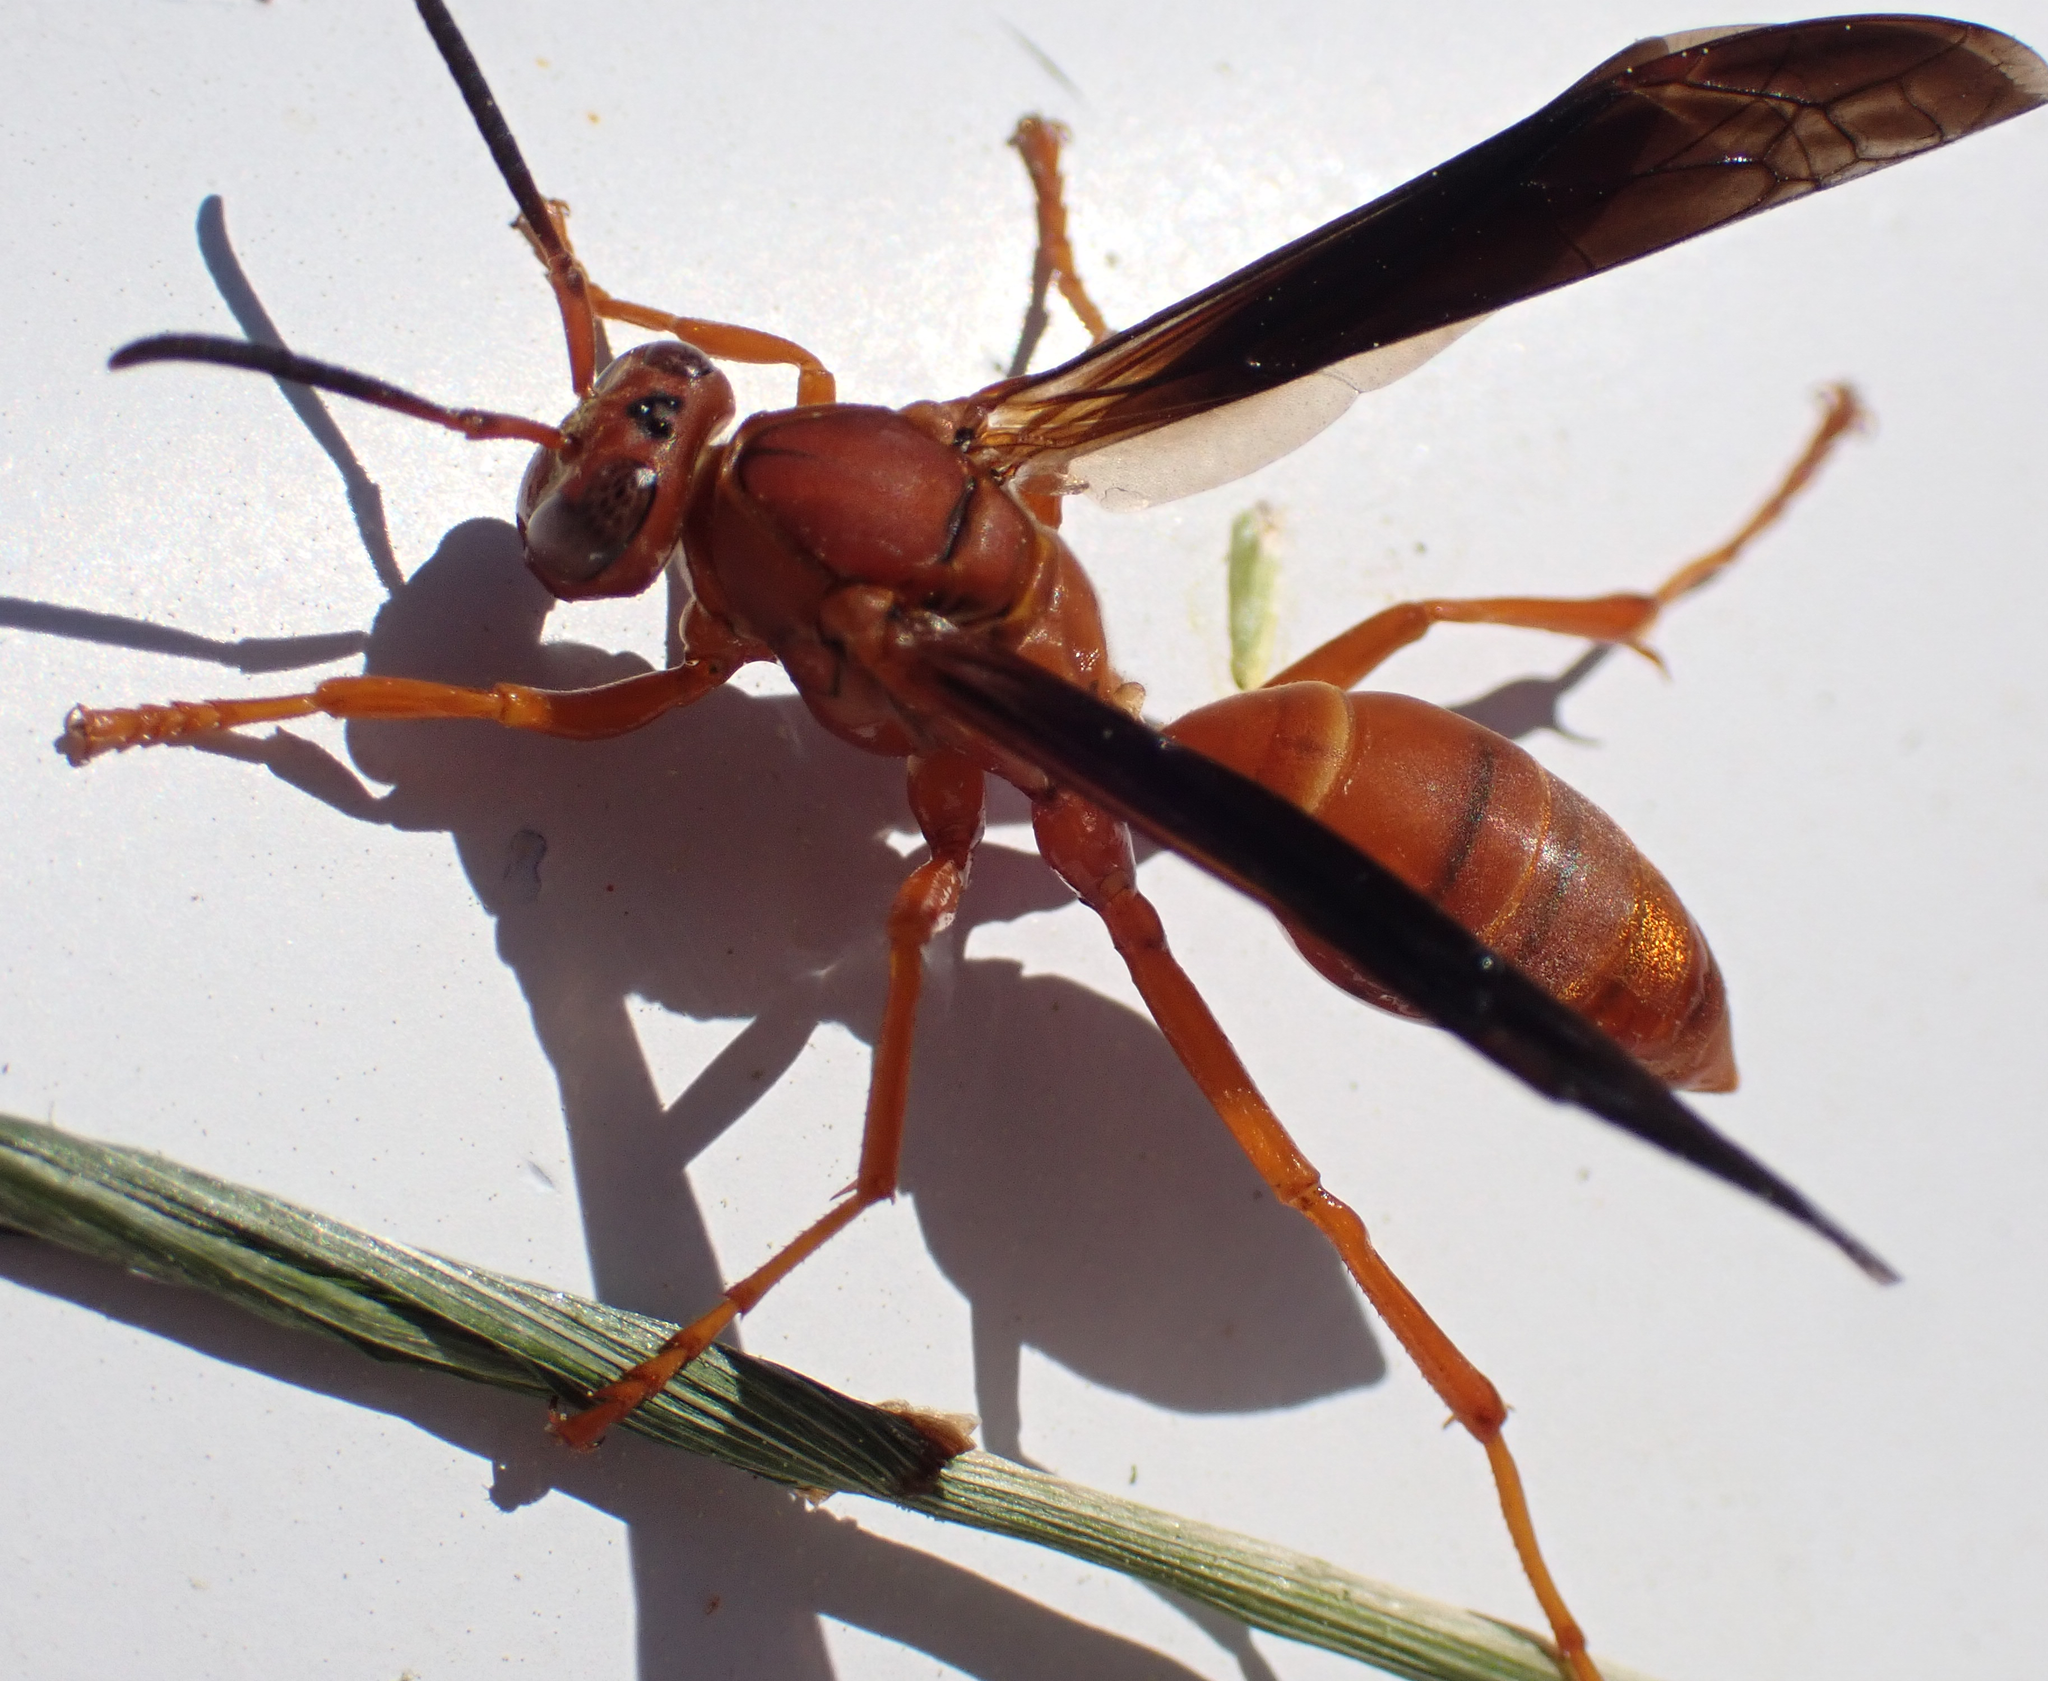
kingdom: Animalia
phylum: Arthropoda
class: Insecta
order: Hymenoptera
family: Eumenidae
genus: Polistes
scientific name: Polistes carolina
